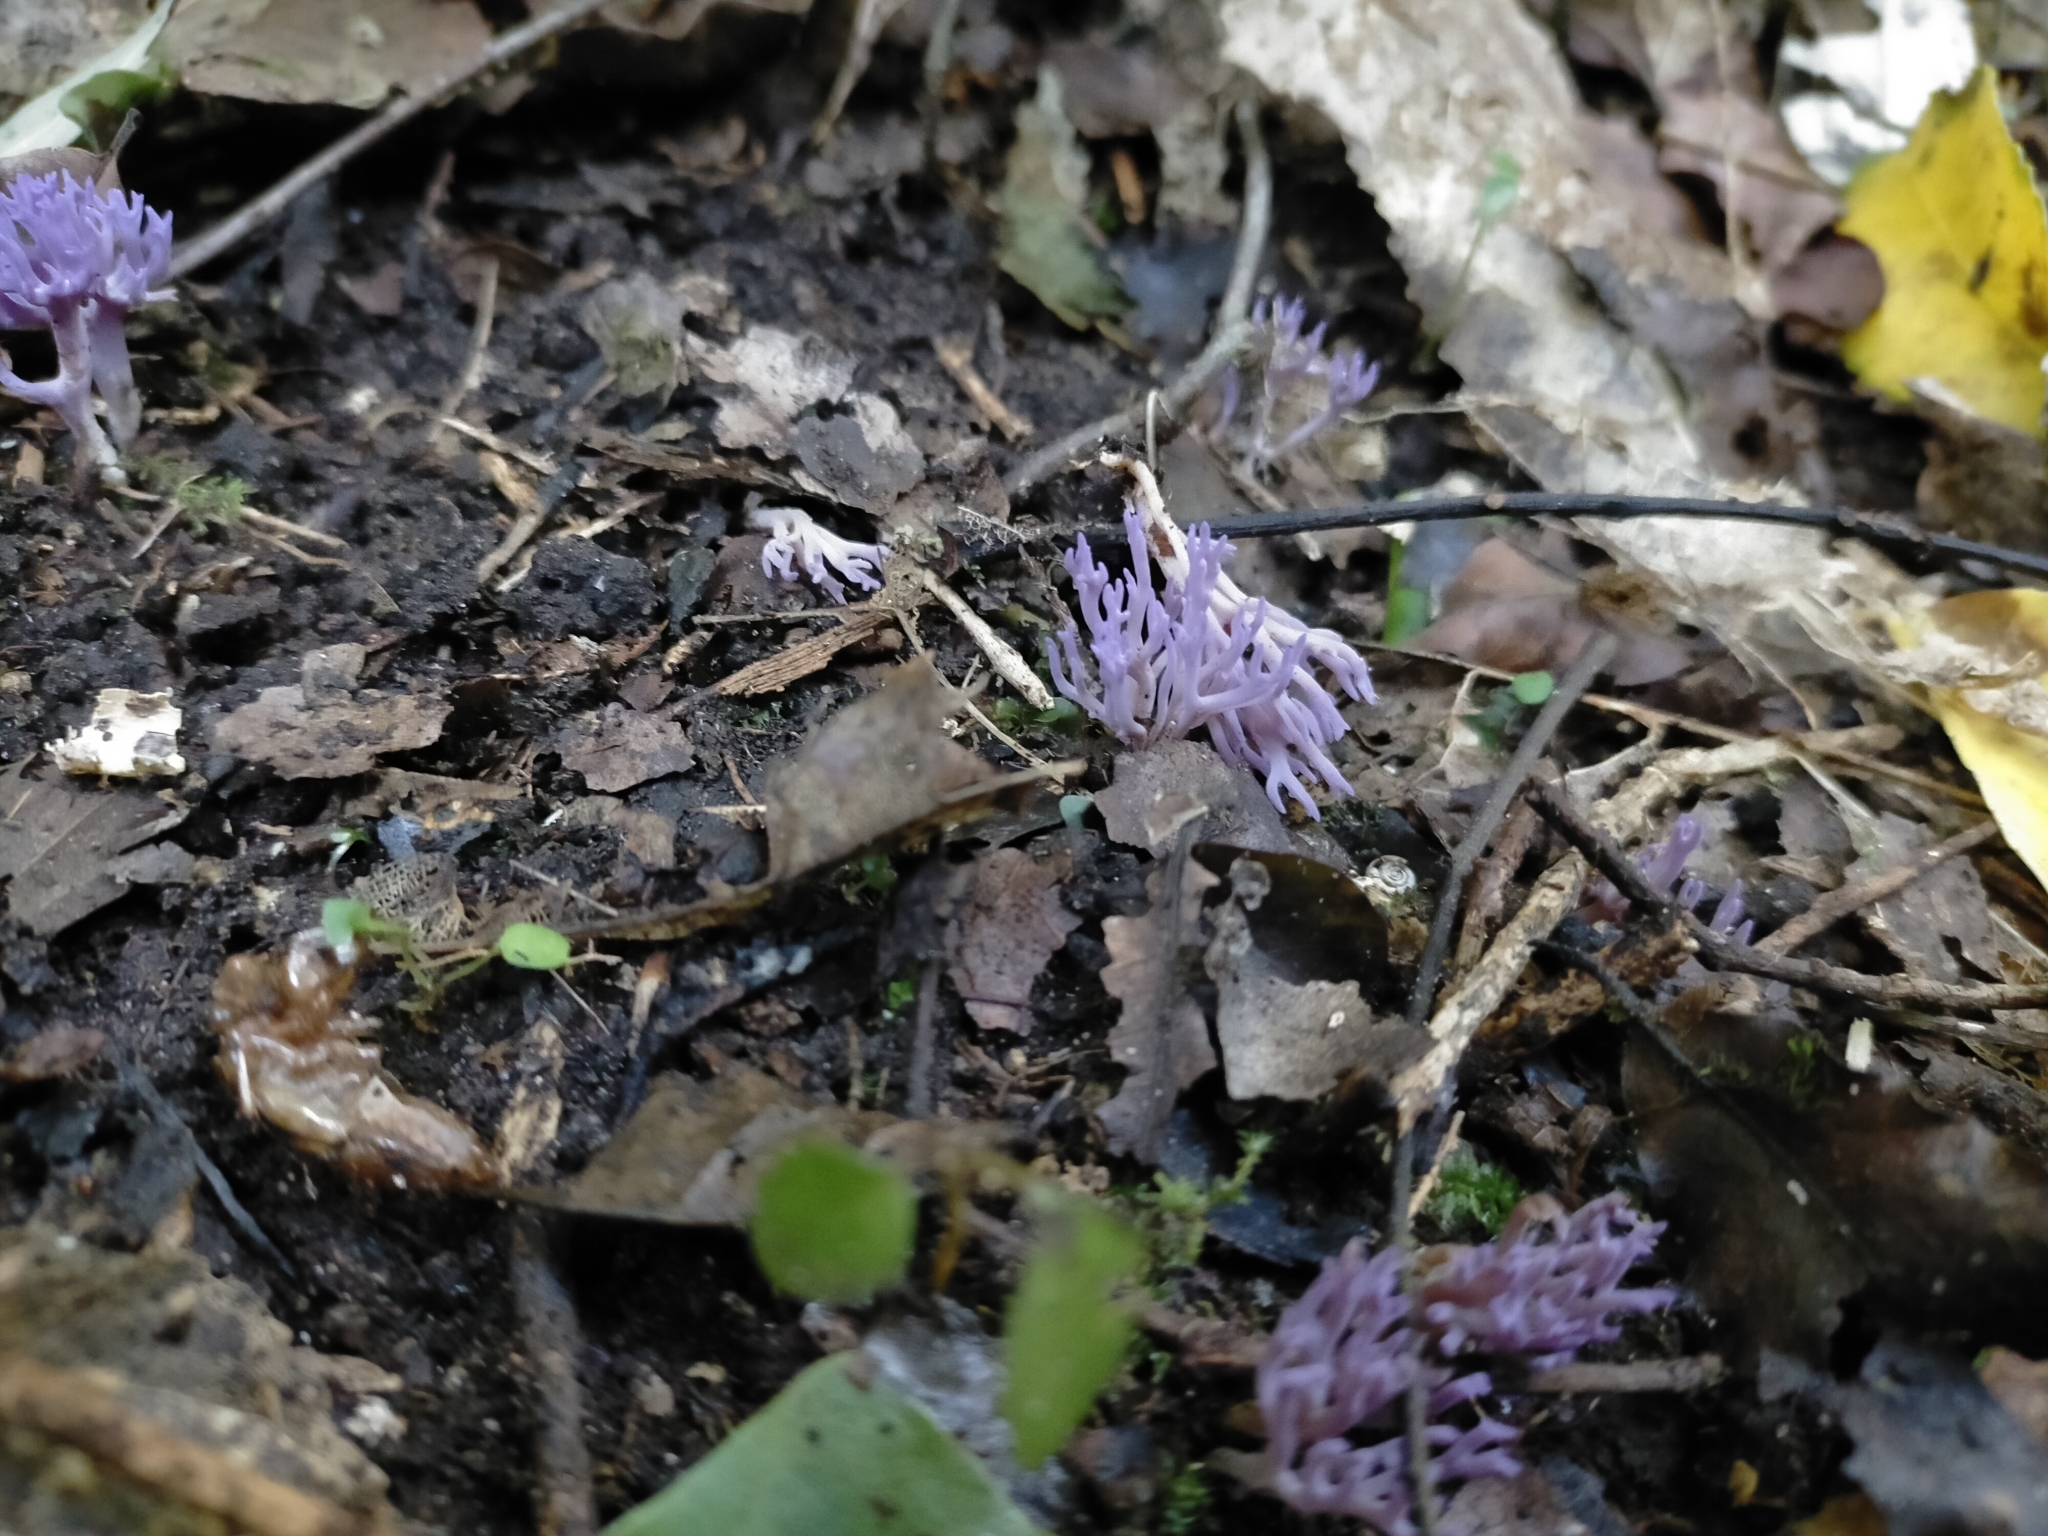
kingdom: Fungi
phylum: Basidiomycota
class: Agaricomycetes
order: Agaricales
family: Clavariaceae
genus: Ramariopsis
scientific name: Ramariopsis pulchella
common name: Lilac coral
